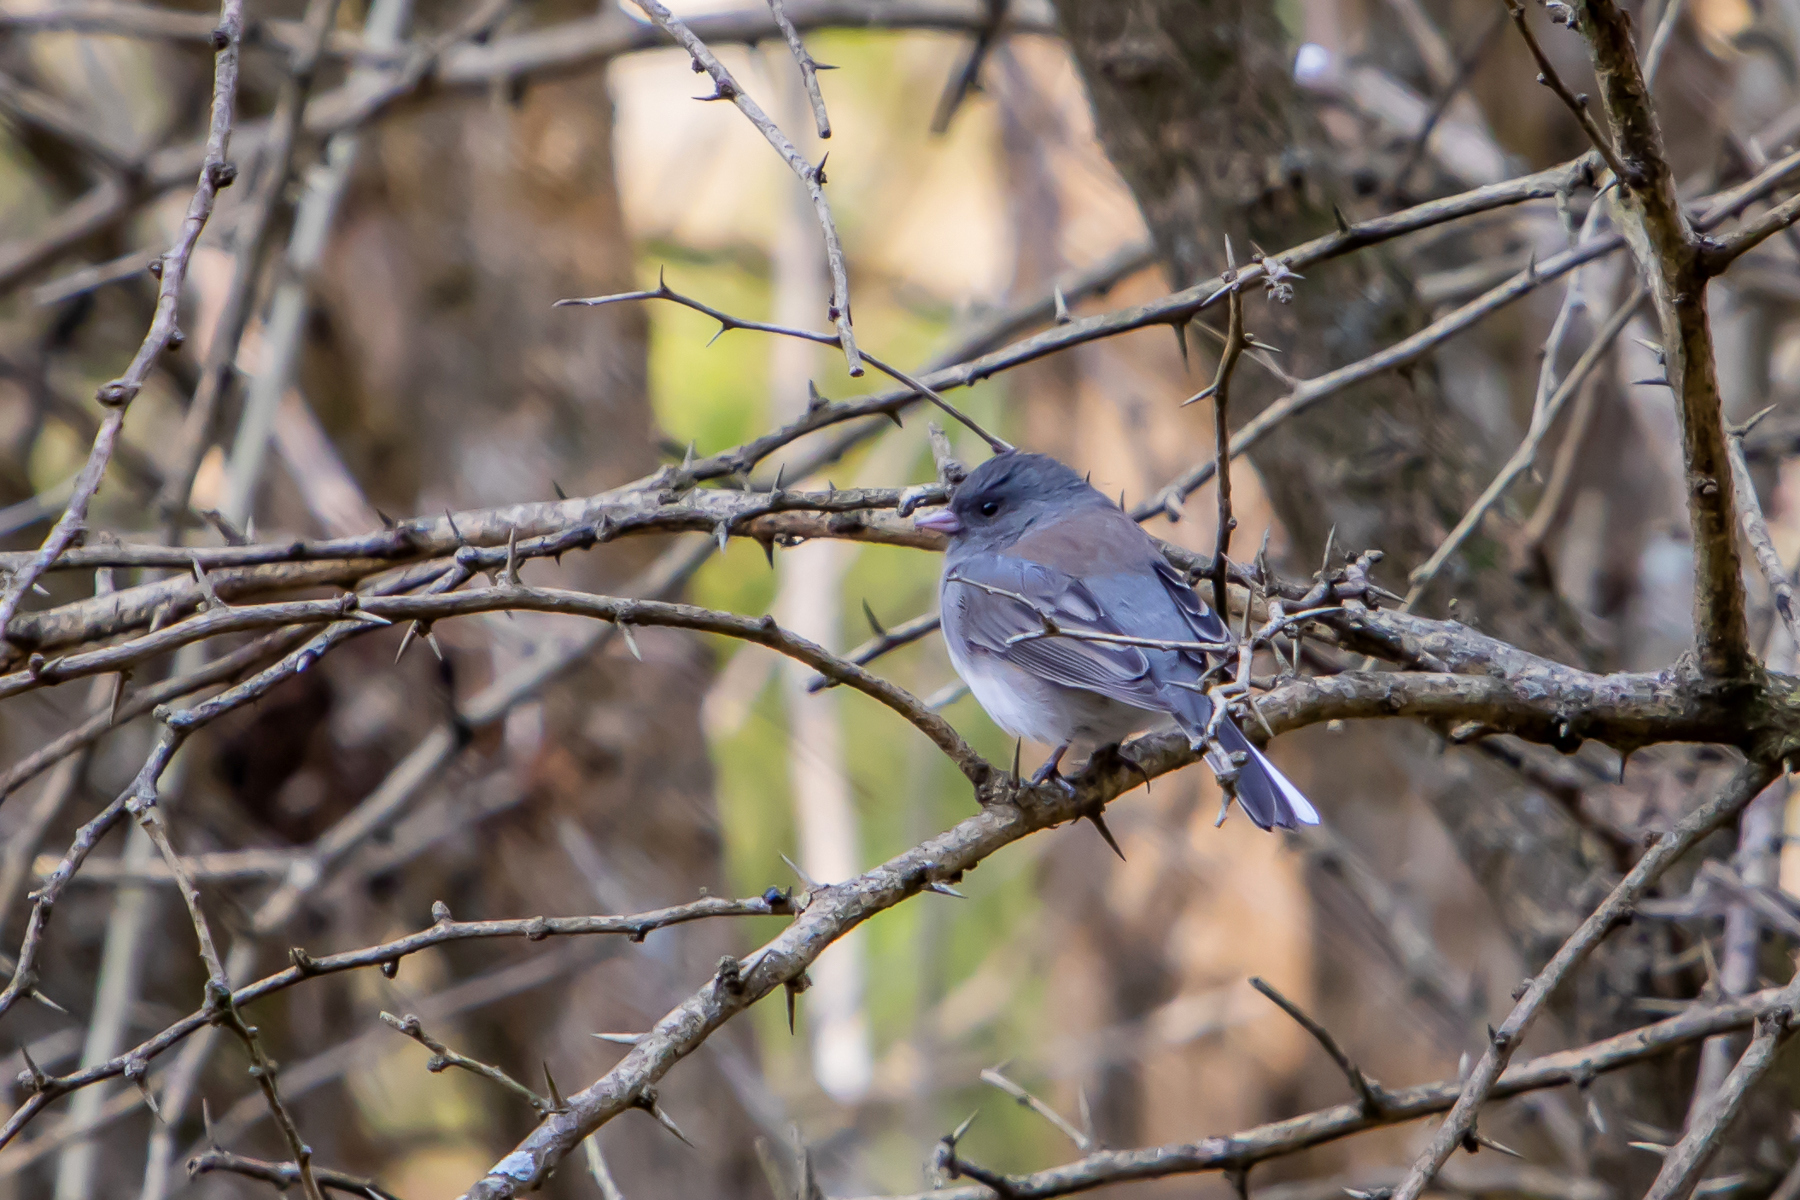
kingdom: Animalia
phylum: Chordata
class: Aves
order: Passeriformes
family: Passerellidae
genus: Junco
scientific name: Junco hyemalis
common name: Dark-eyed junco
